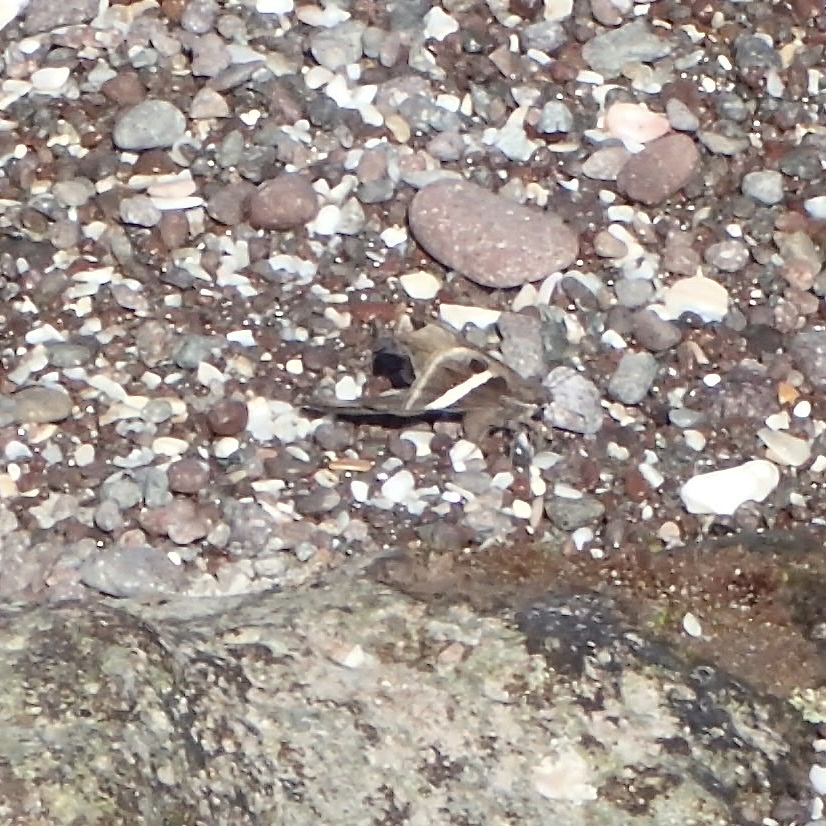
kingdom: Animalia
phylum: Arthropoda
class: Insecta
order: Lepidoptera
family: Hesperiidae
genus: Chioides
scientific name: Chioides catillus
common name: Silverbanded skipper
